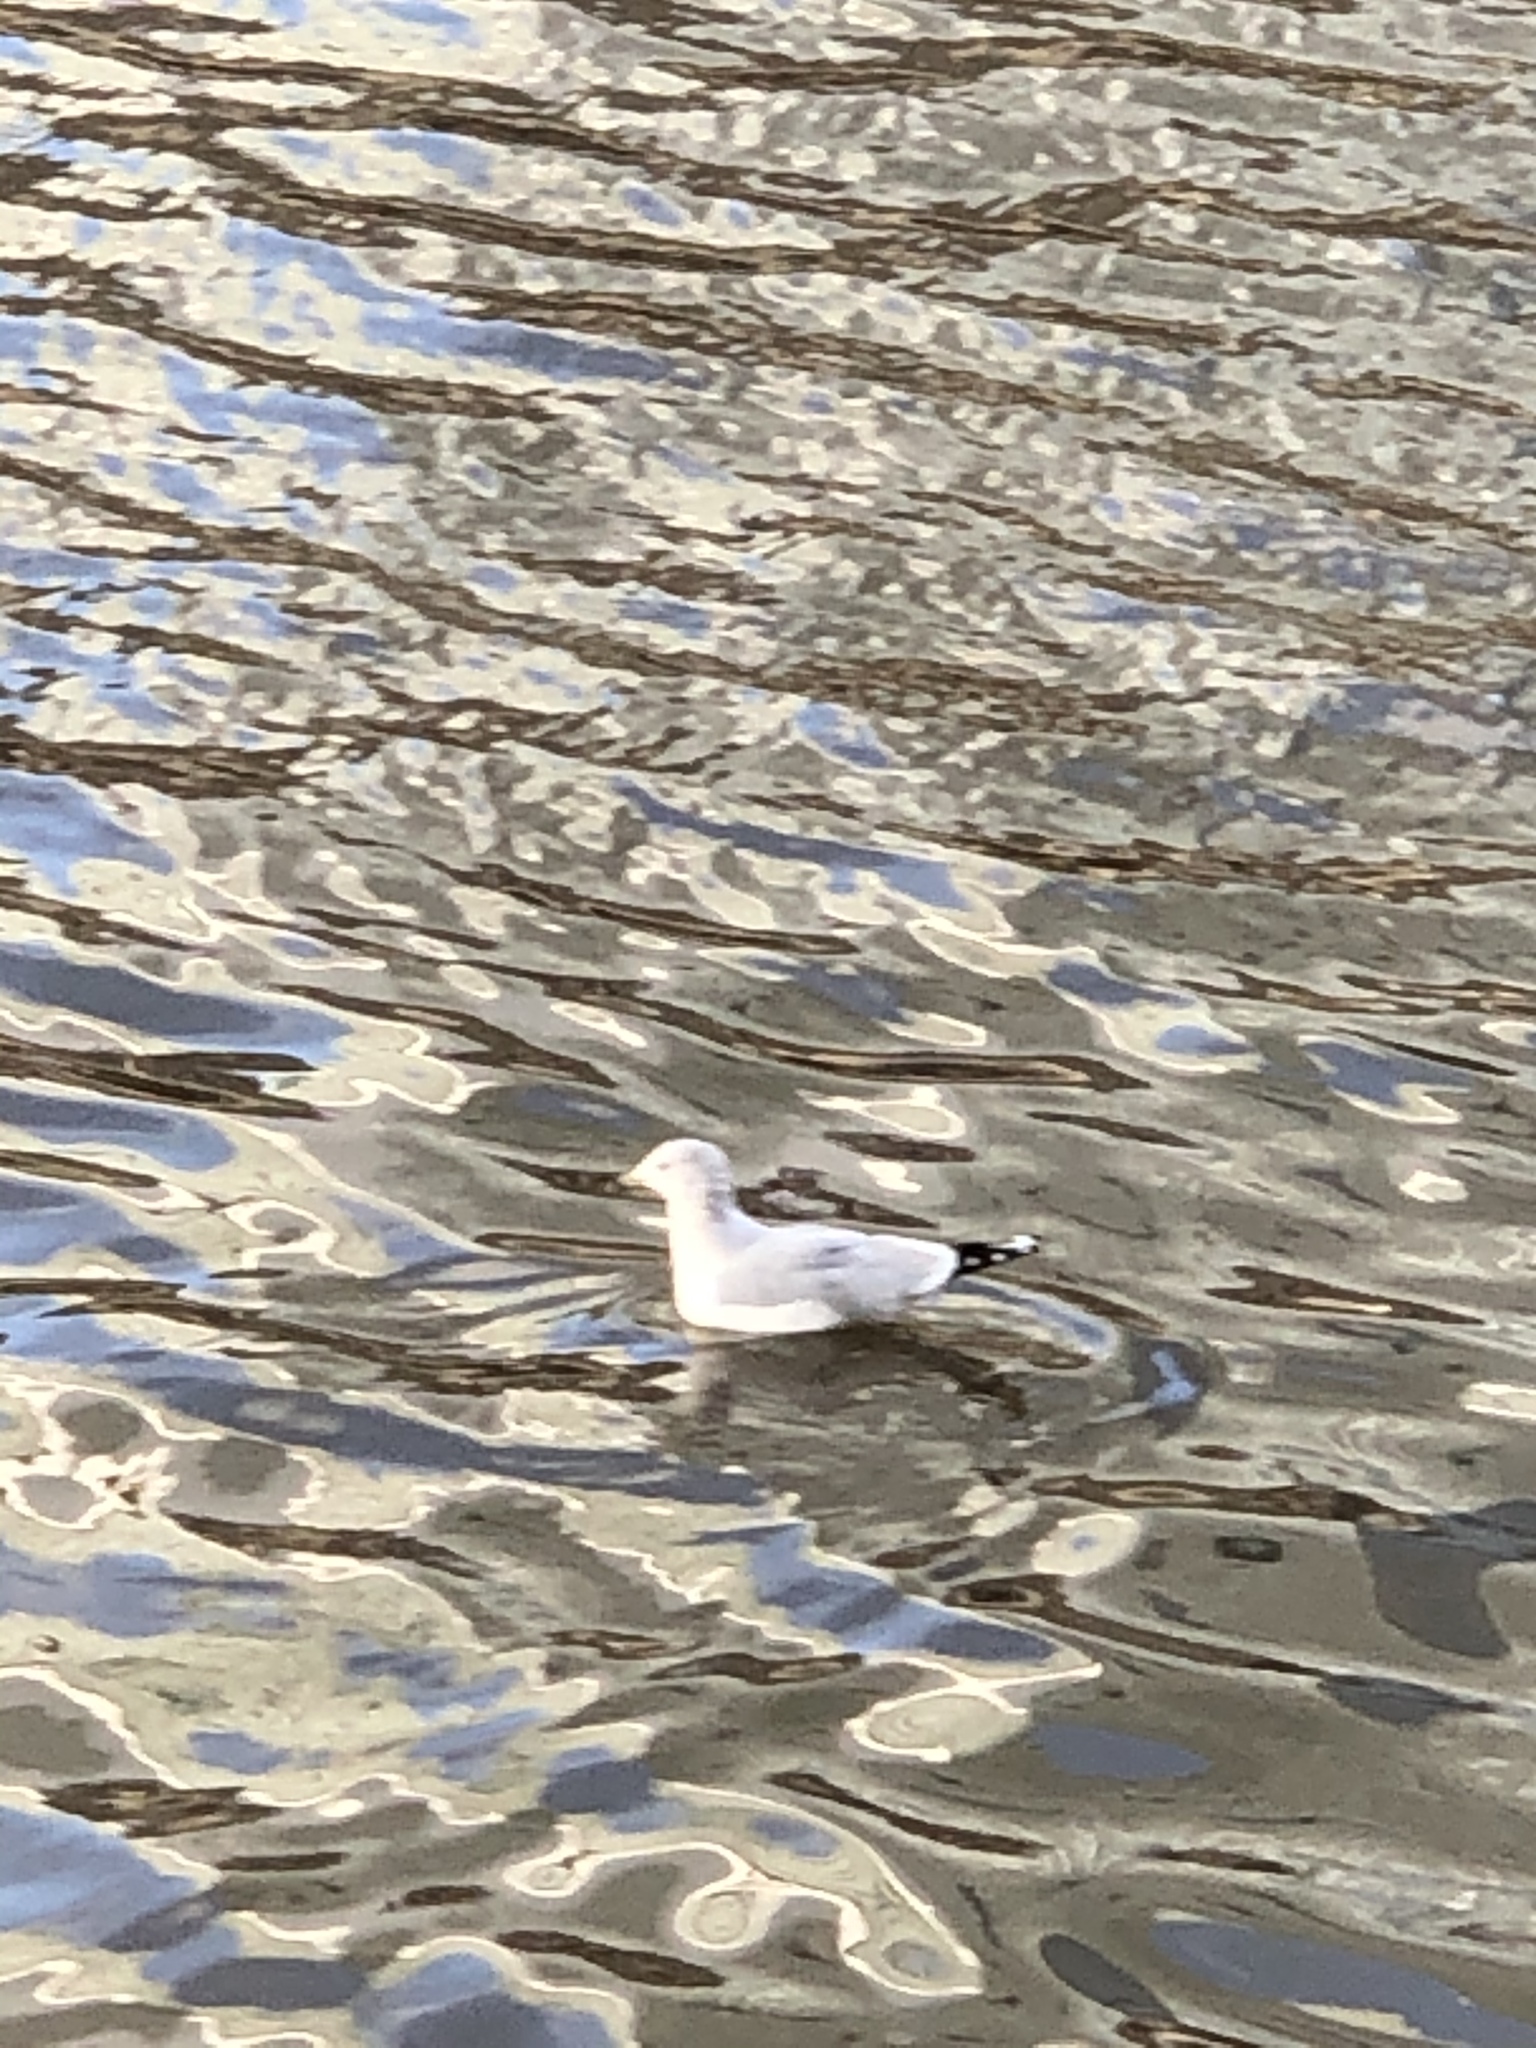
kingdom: Animalia
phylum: Chordata
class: Aves
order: Charadriiformes
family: Laridae
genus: Larus
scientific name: Larus delawarensis
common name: Ring-billed gull
